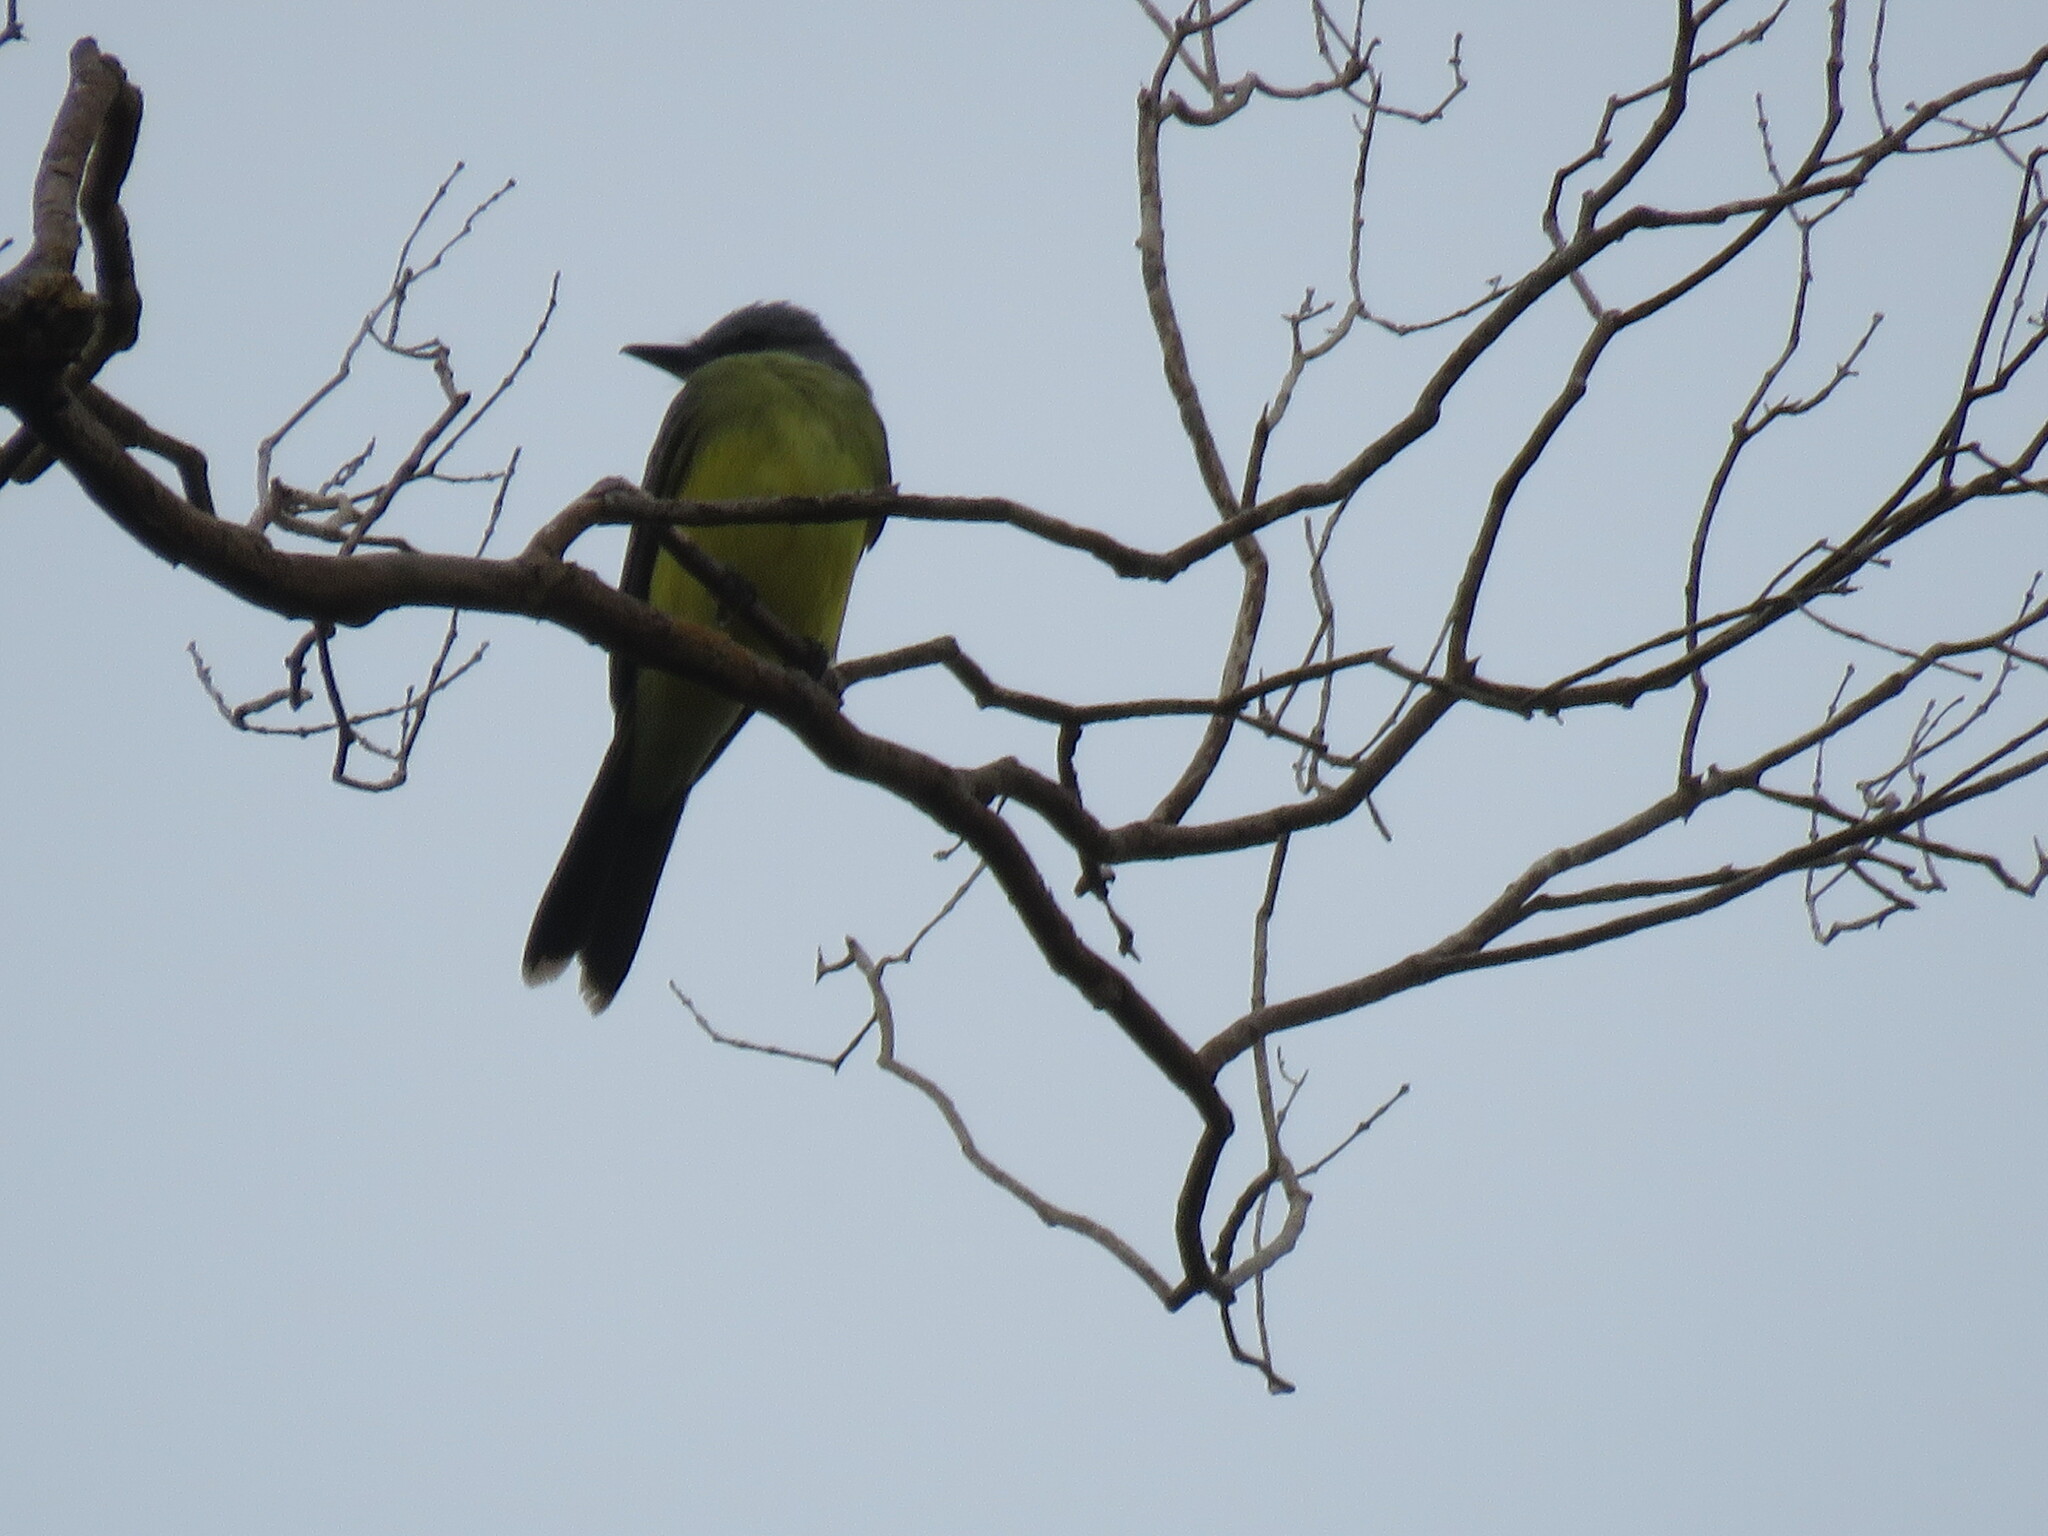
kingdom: Animalia
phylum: Chordata
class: Aves
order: Passeriformes
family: Tyrannidae
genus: Tyrannus
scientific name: Tyrannus melancholicus
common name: Tropical kingbird
